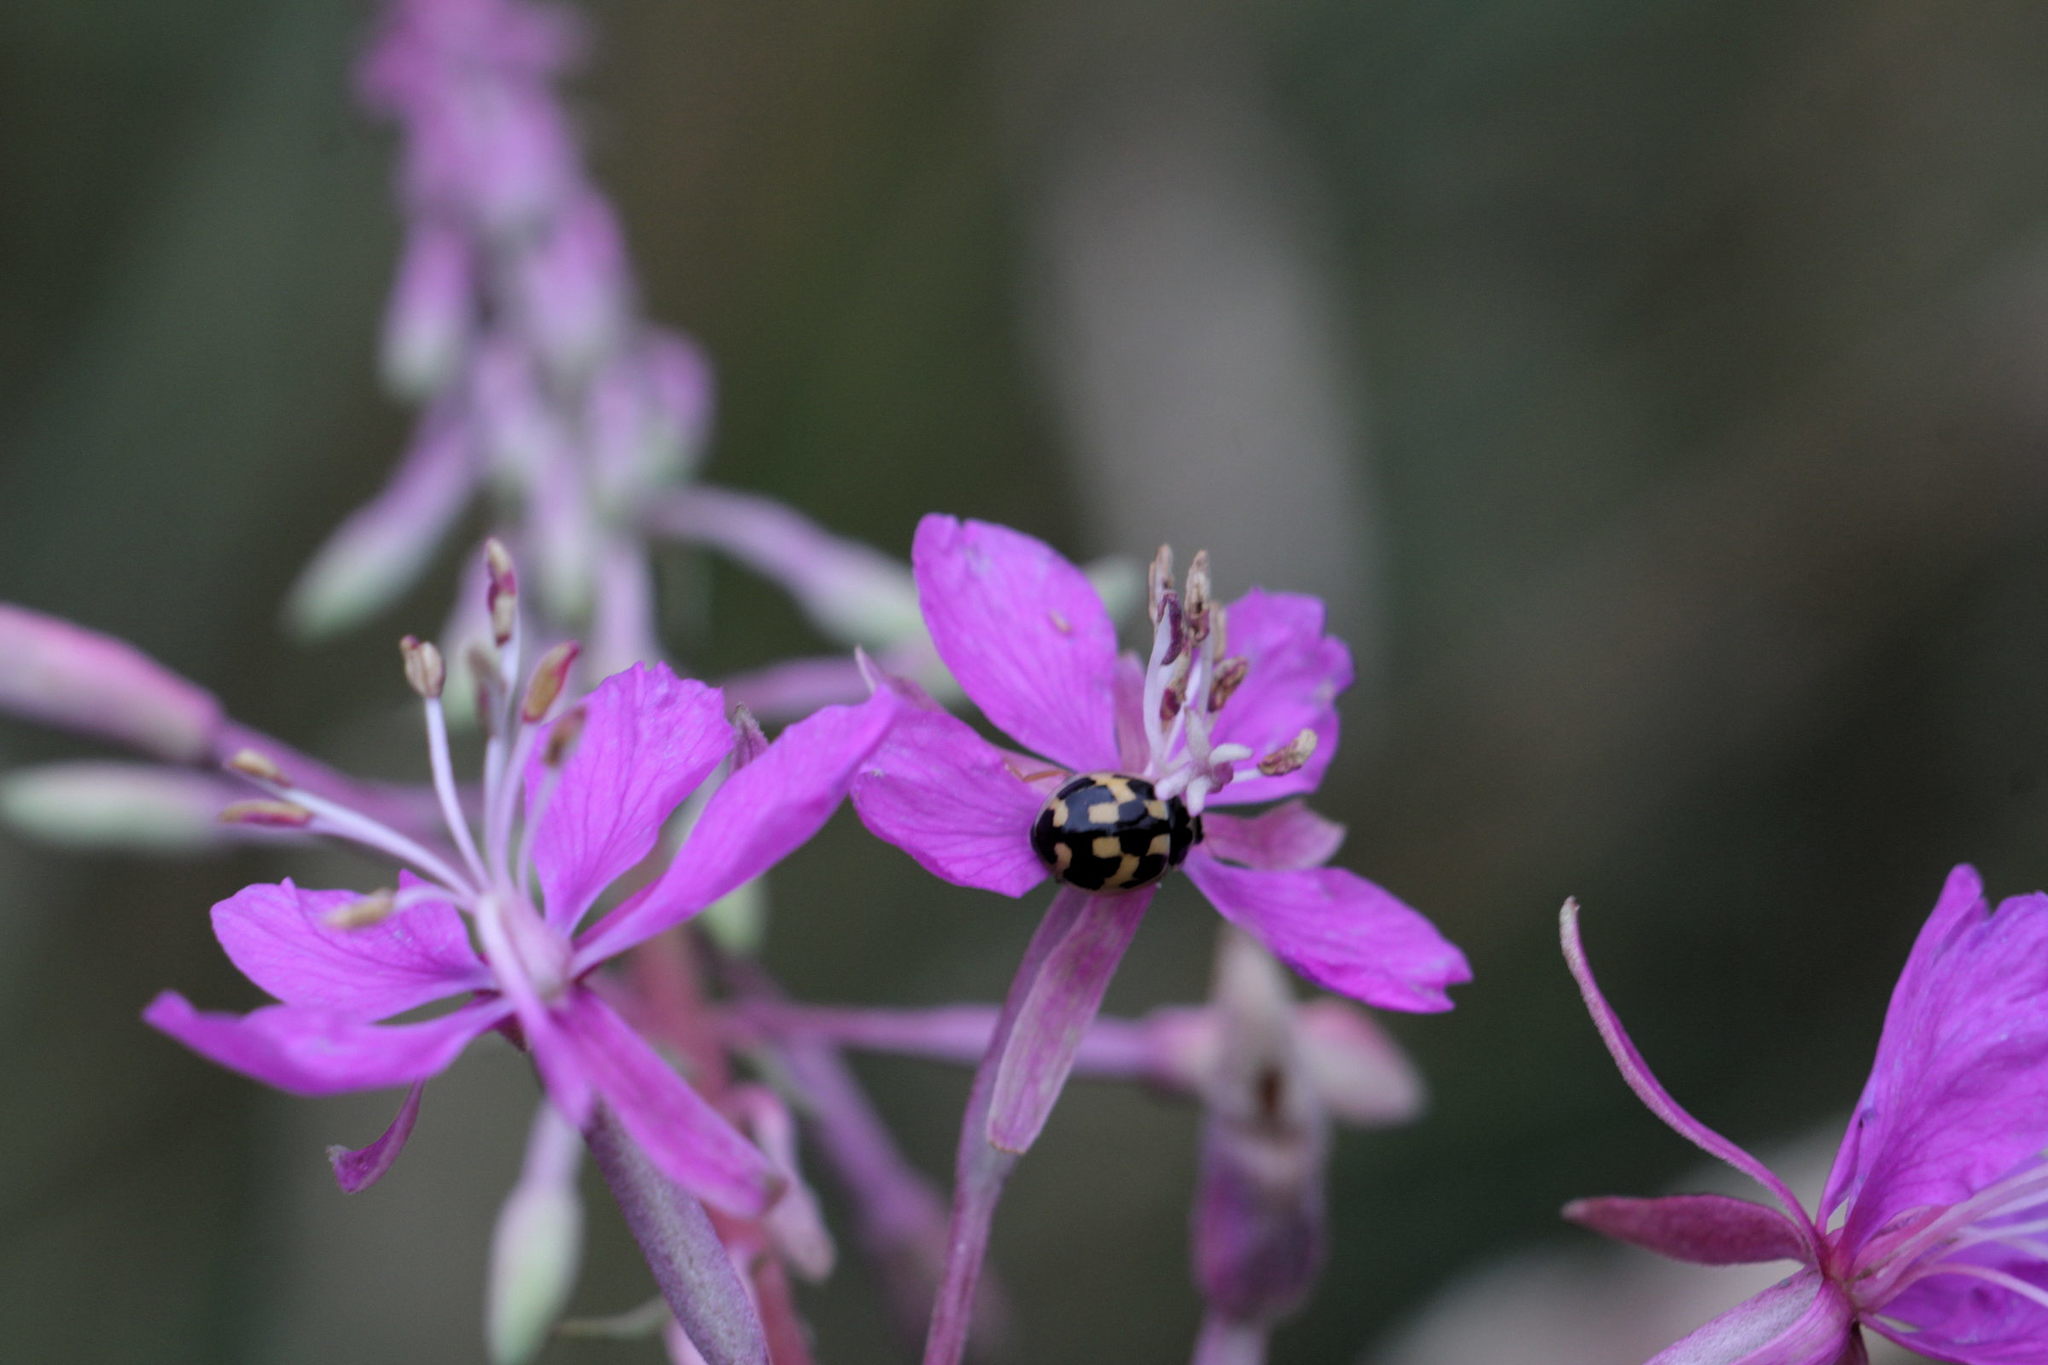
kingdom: Animalia
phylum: Arthropoda
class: Insecta
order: Coleoptera
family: Coccinellidae
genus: Propylaea
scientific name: Propylaea quatuordecimpunctata
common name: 14-spotted ladybird beetle
